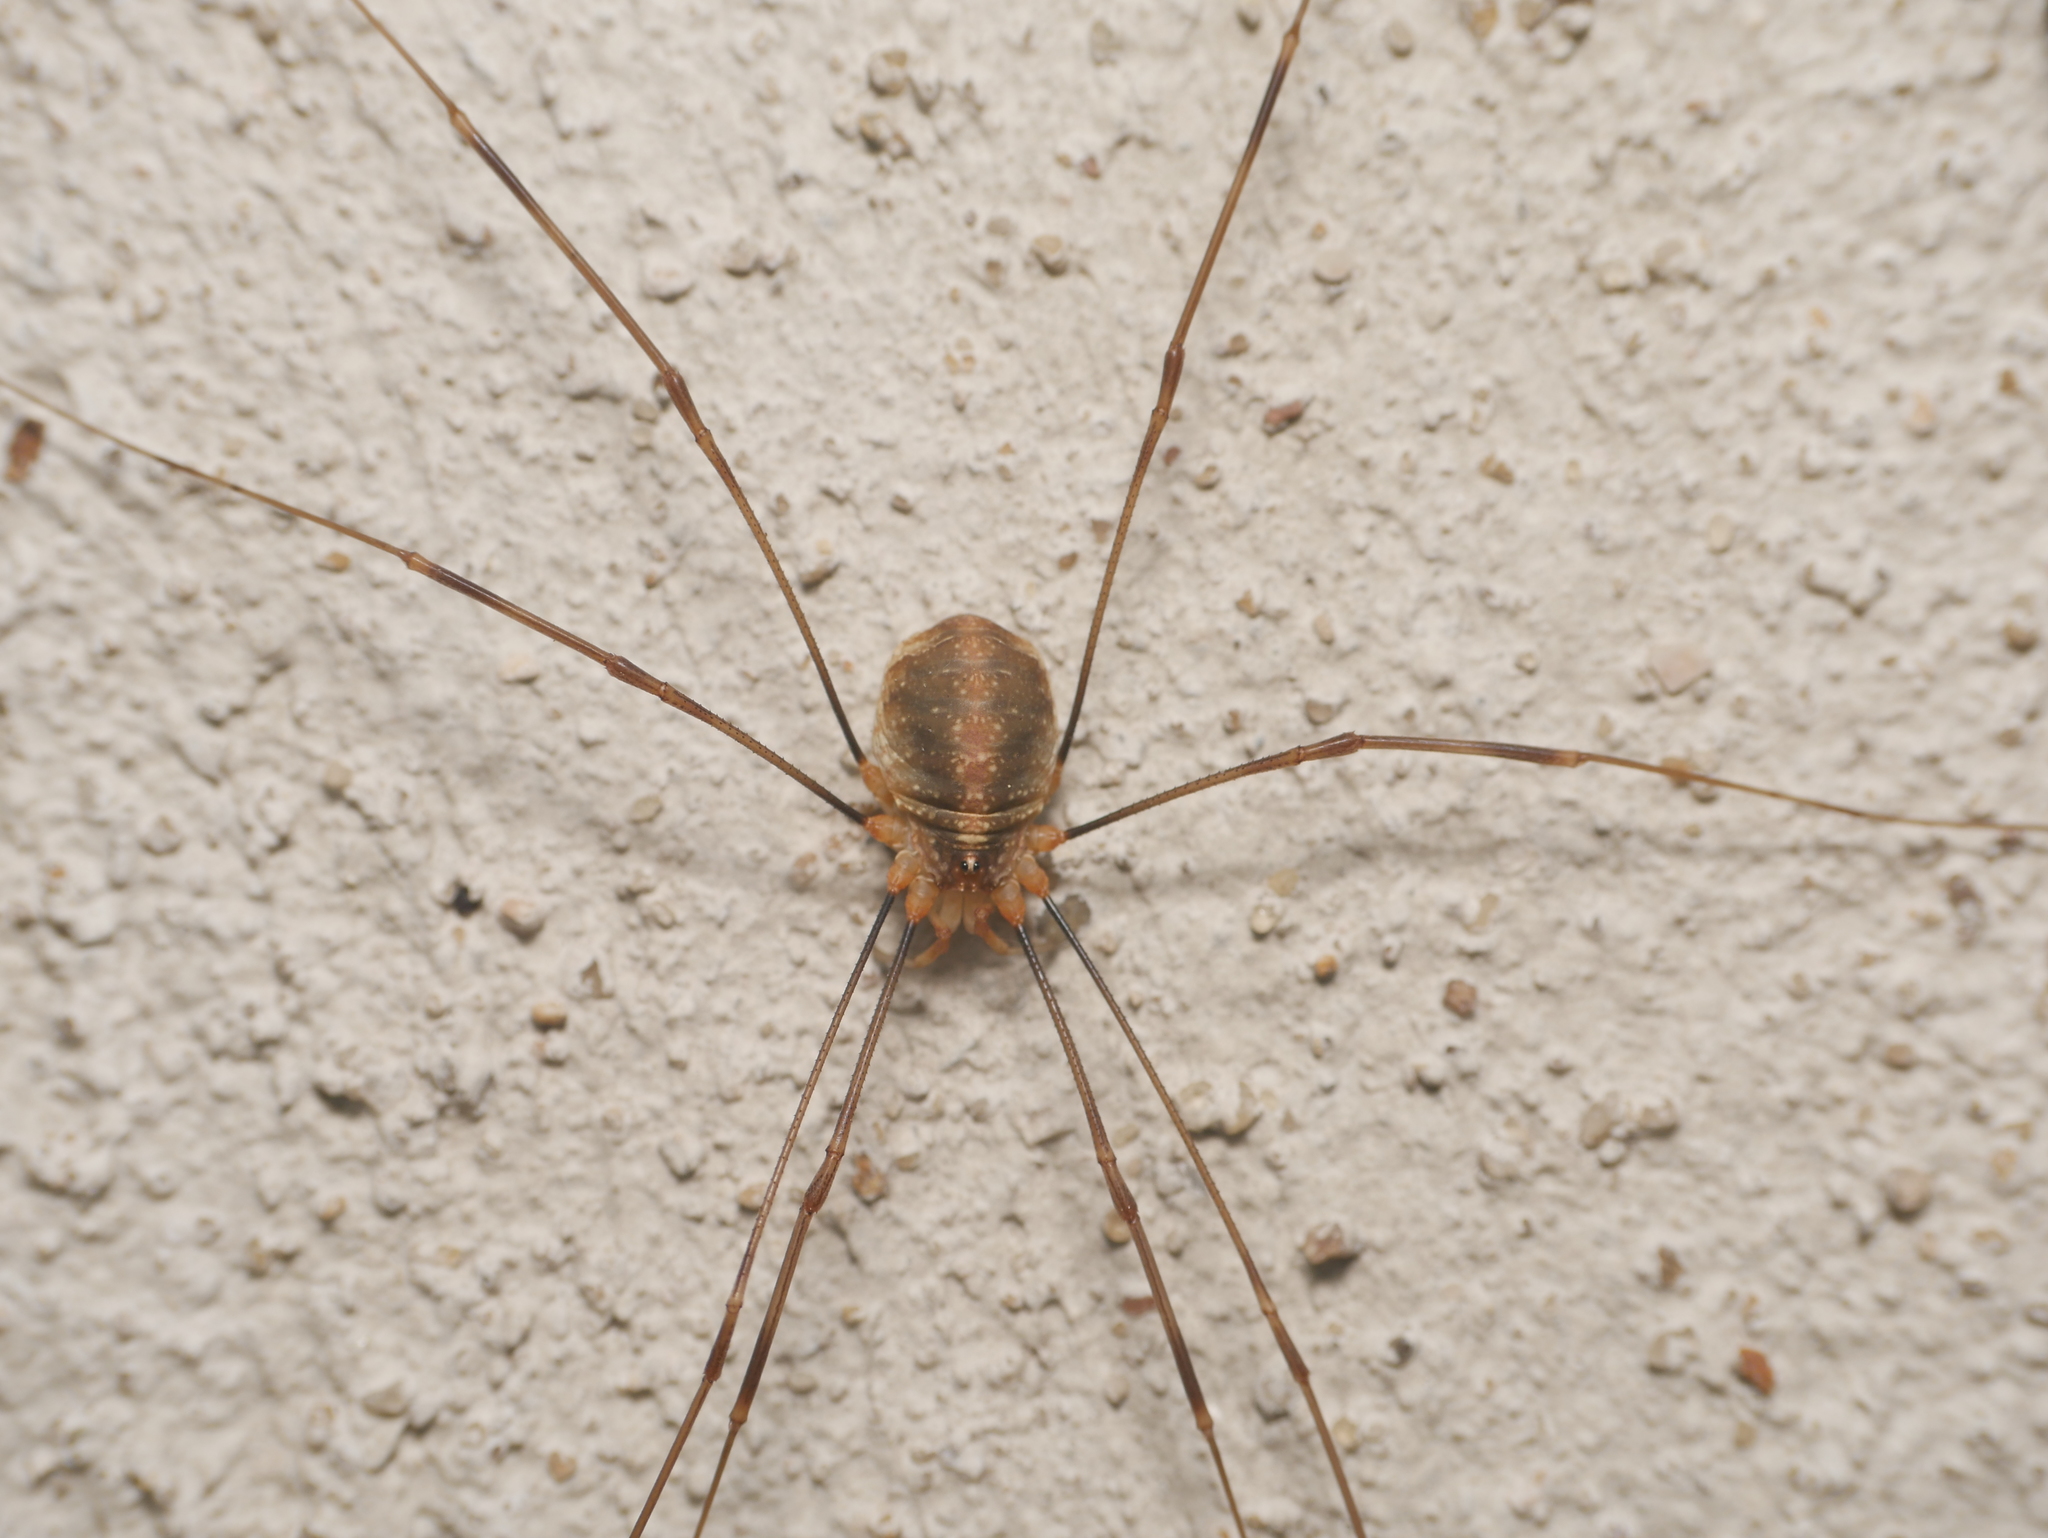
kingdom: Animalia
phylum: Arthropoda
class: Arachnida
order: Opiliones
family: Phalangiidae
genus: Opilio
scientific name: Opilio canestrinii
